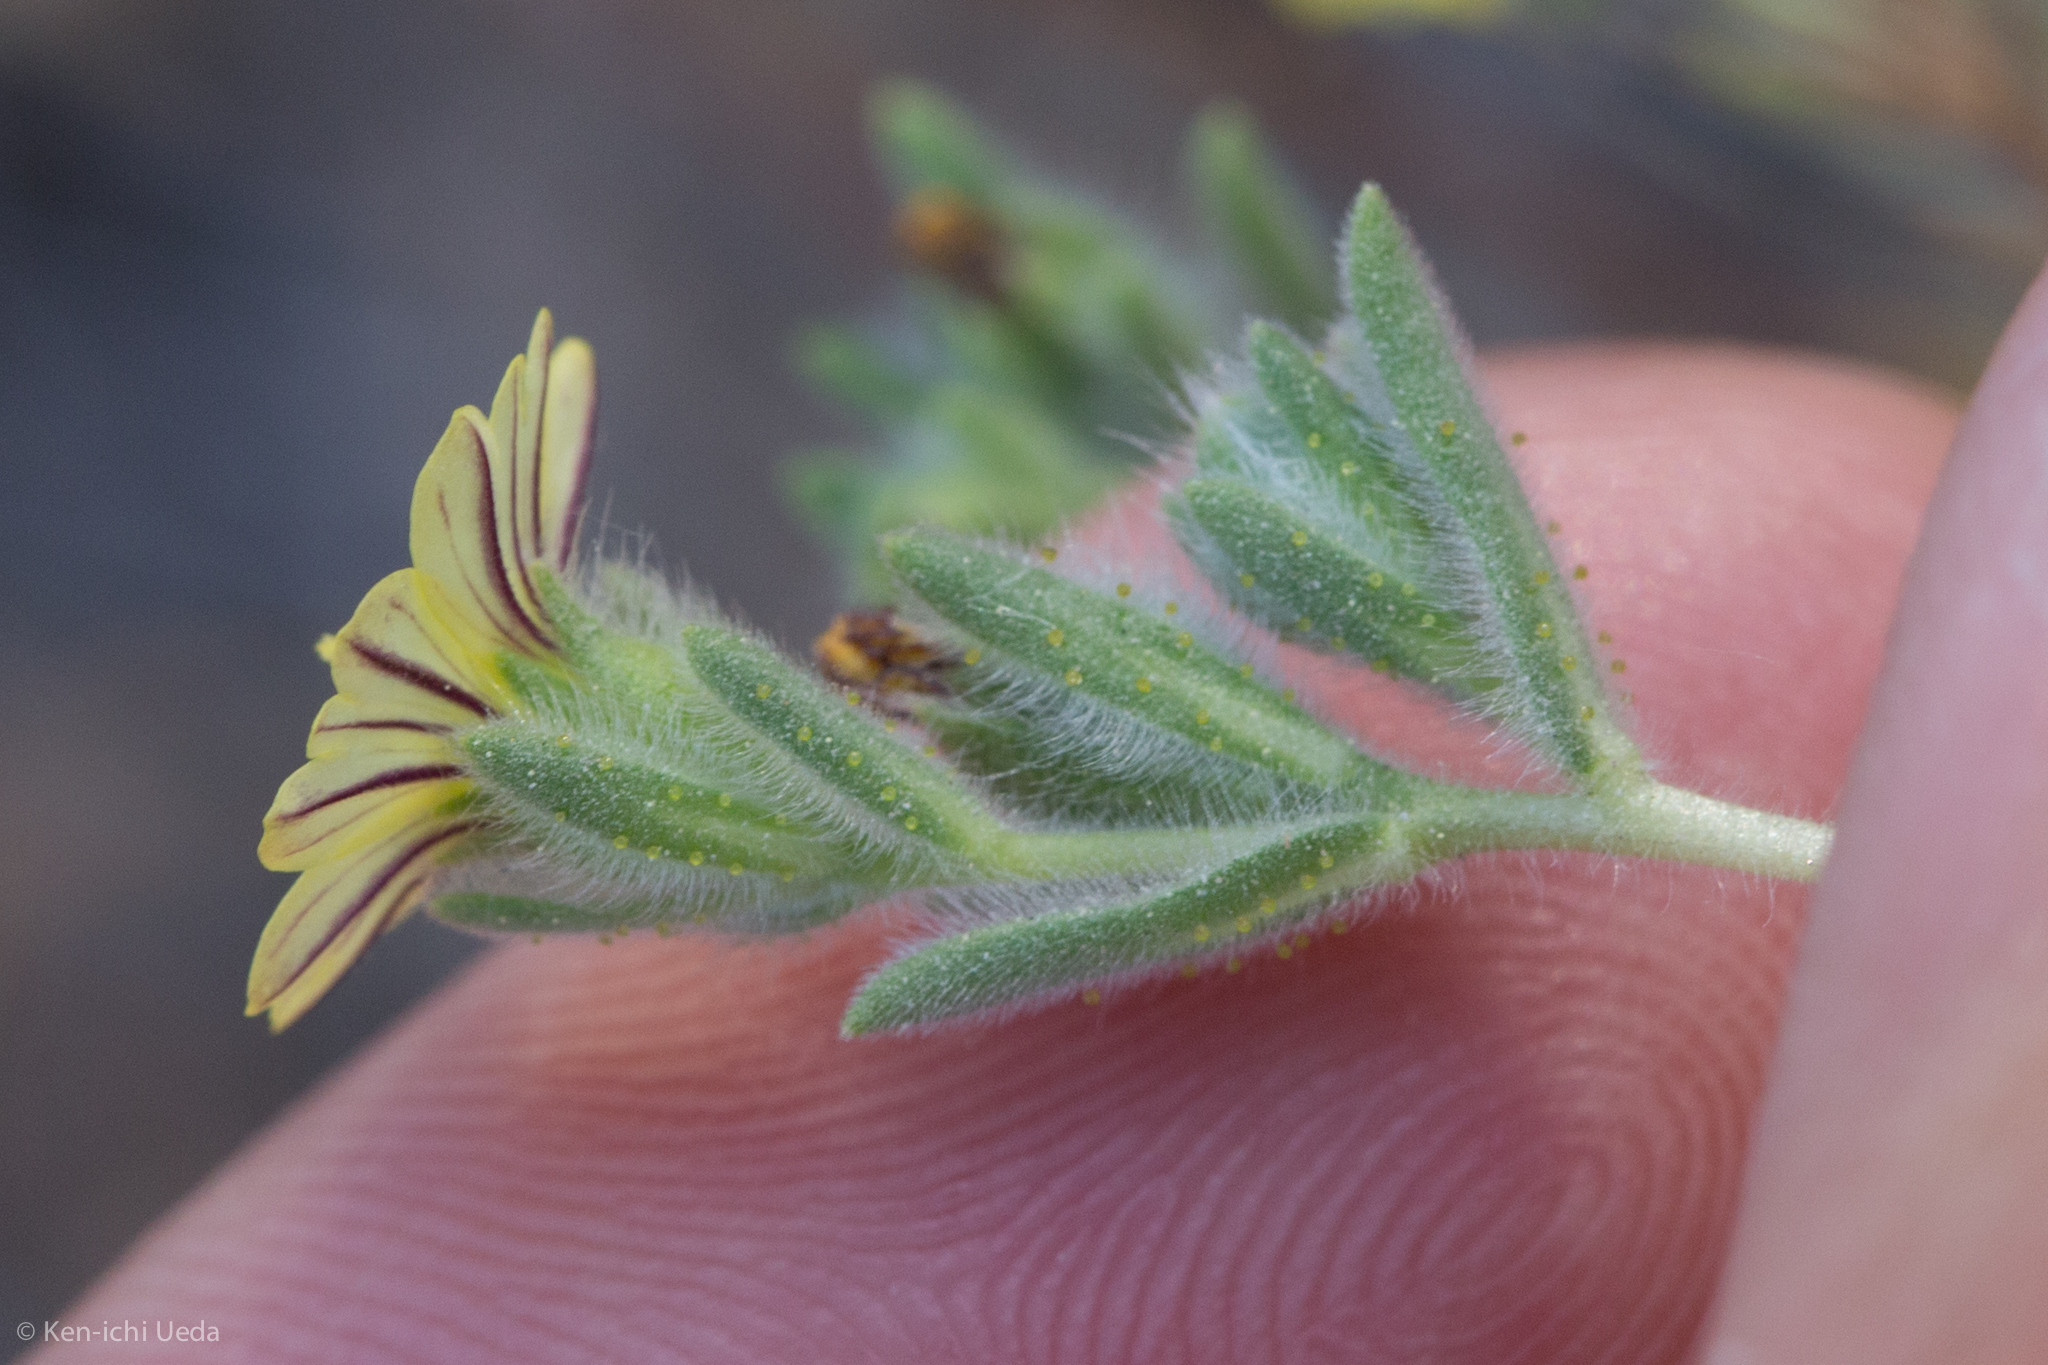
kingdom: Plantae
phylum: Tracheophyta
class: Magnoliopsida
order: Asterales
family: Asteraceae
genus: Lagophylla
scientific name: Lagophylla ramosissima
